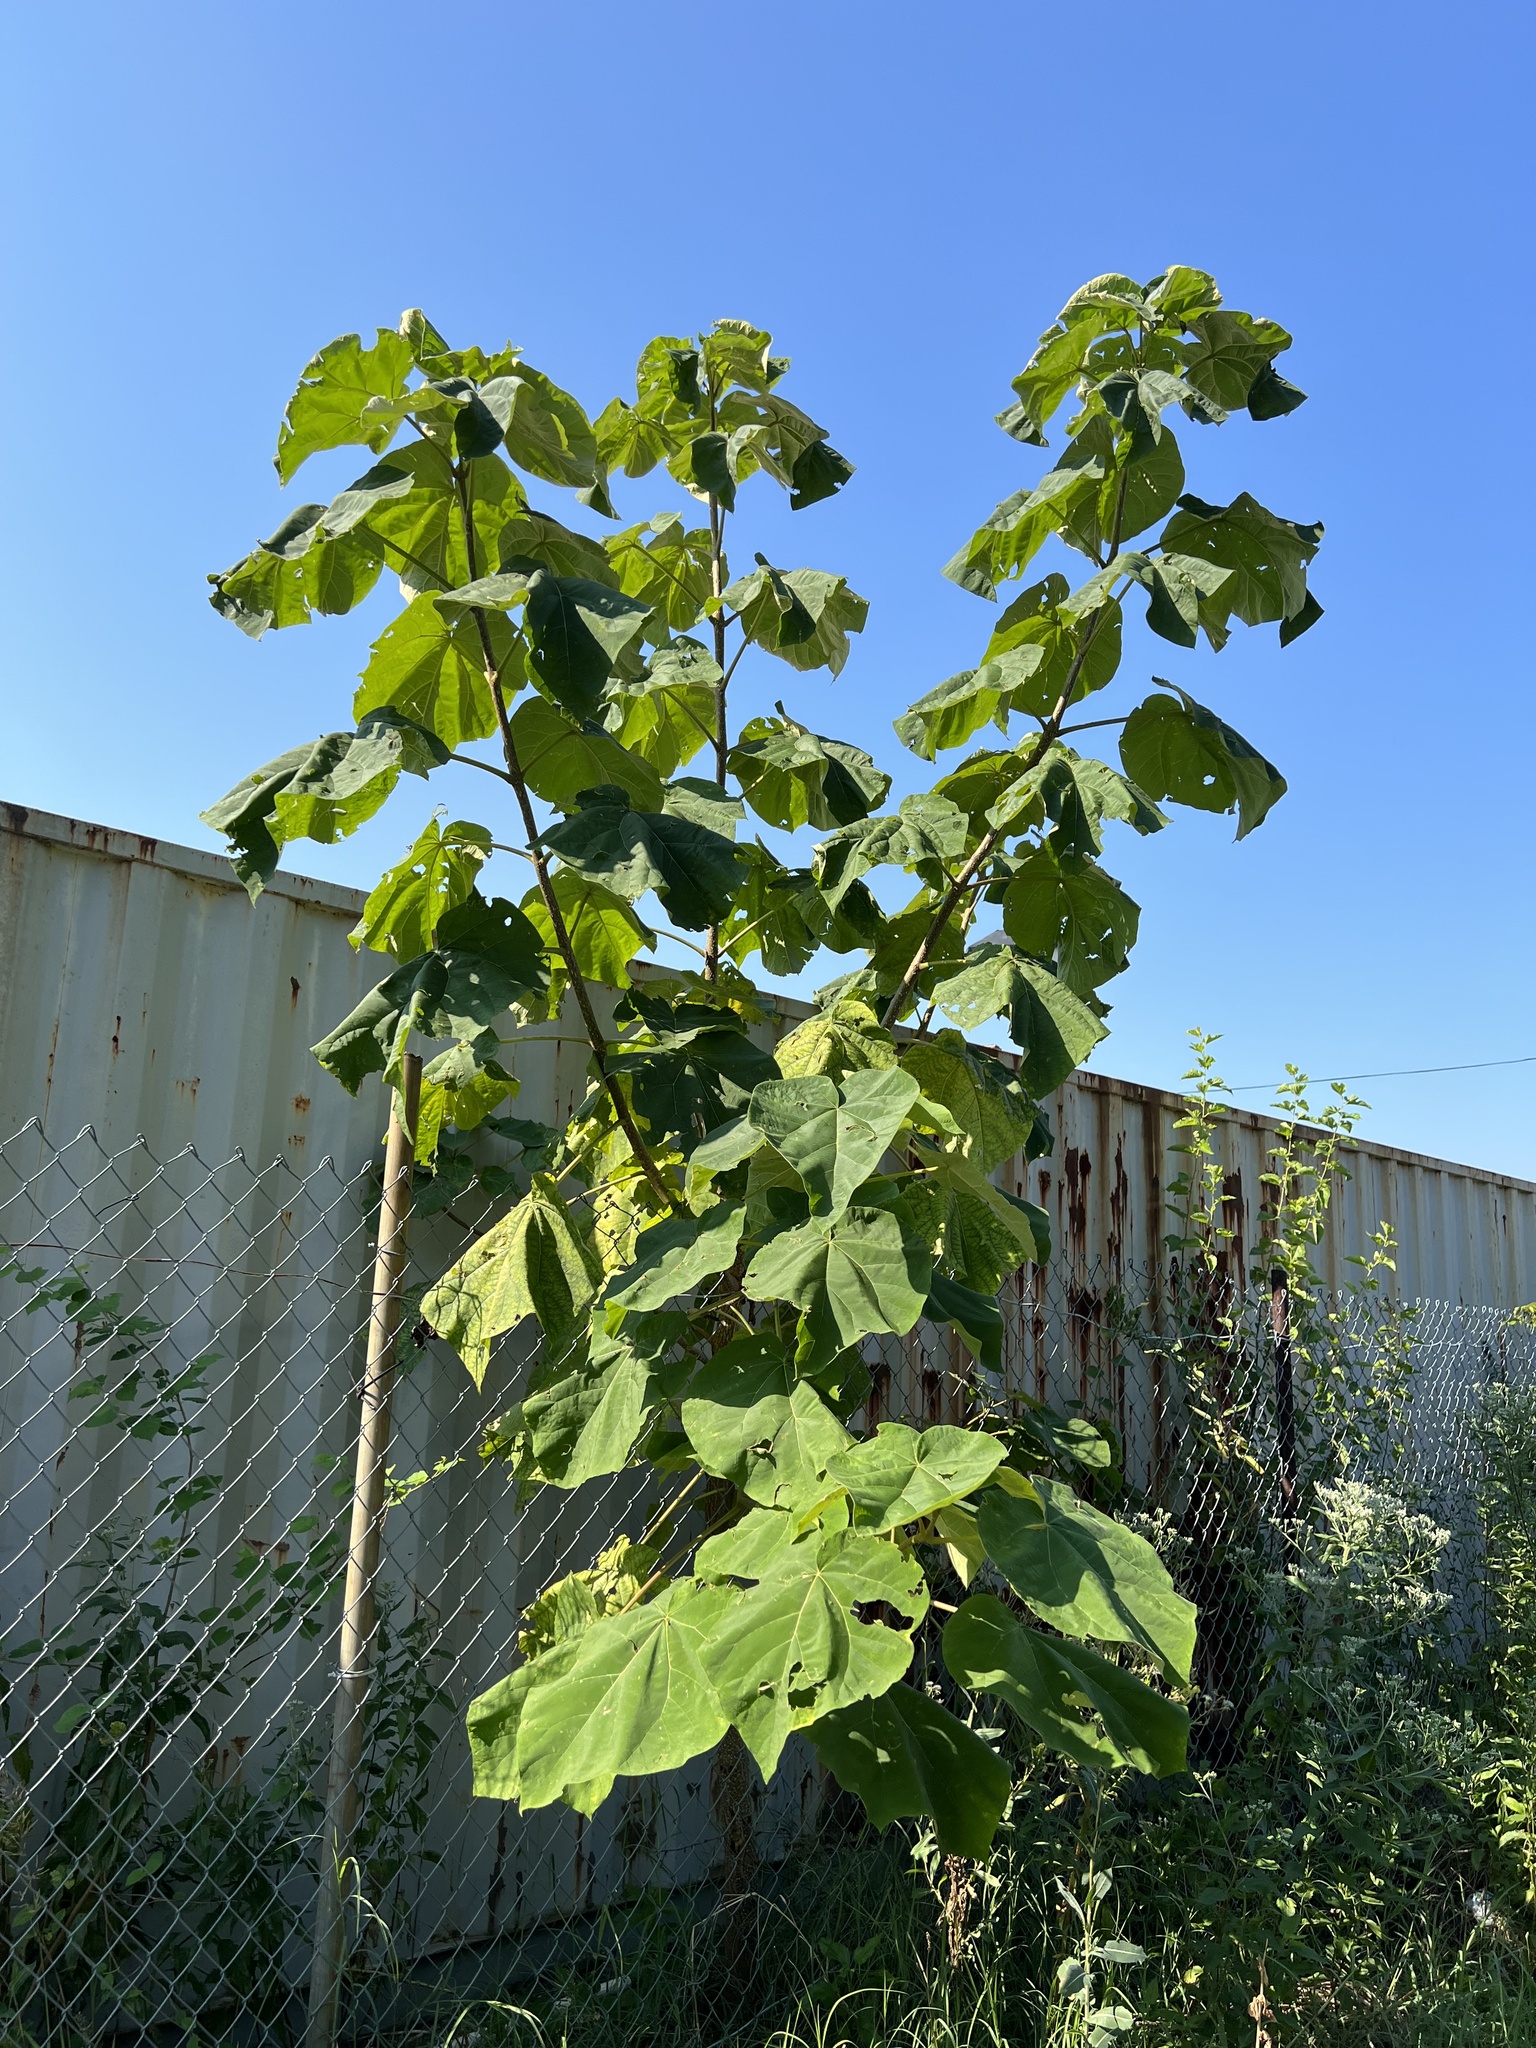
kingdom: Plantae
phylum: Tracheophyta
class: Magnoliopsida
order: Lamiales
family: Paulowniaceae
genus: Paulownia
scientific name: Paulownia tomentosa
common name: Foxglove-tree
